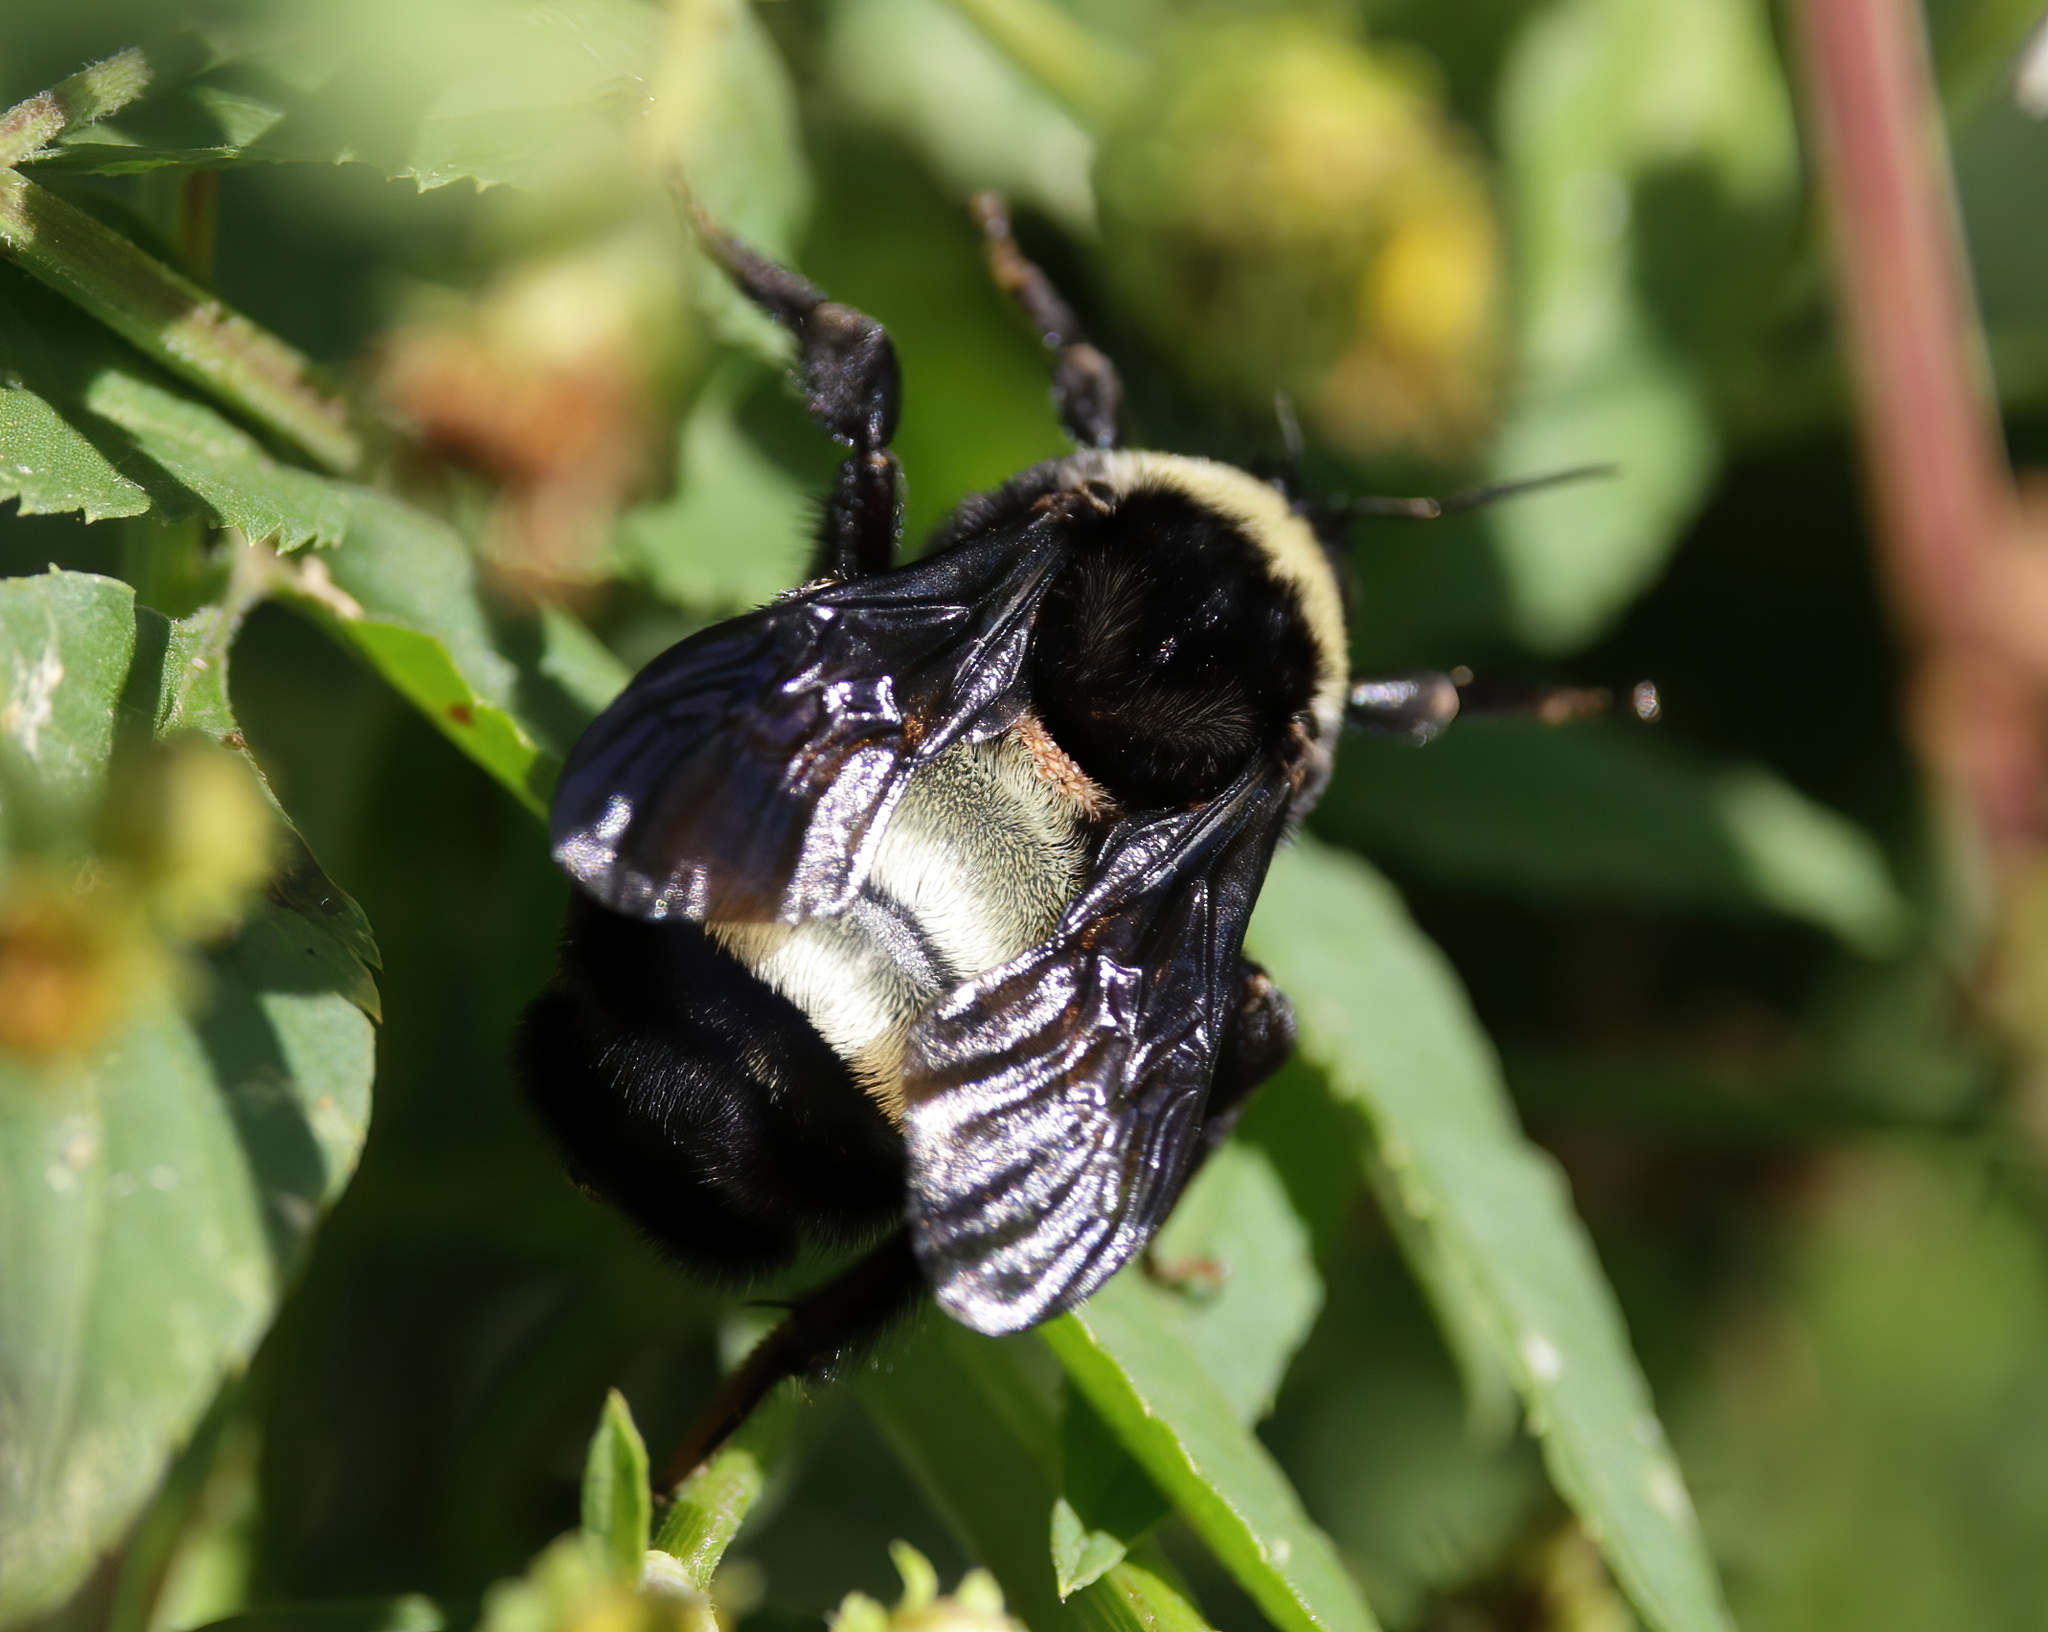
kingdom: Animalia
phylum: Arthropoda
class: Insecta
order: Hymenoptera
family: Apidae
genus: Bombus
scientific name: Bombus pensylvanicus
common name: Bumble bee
